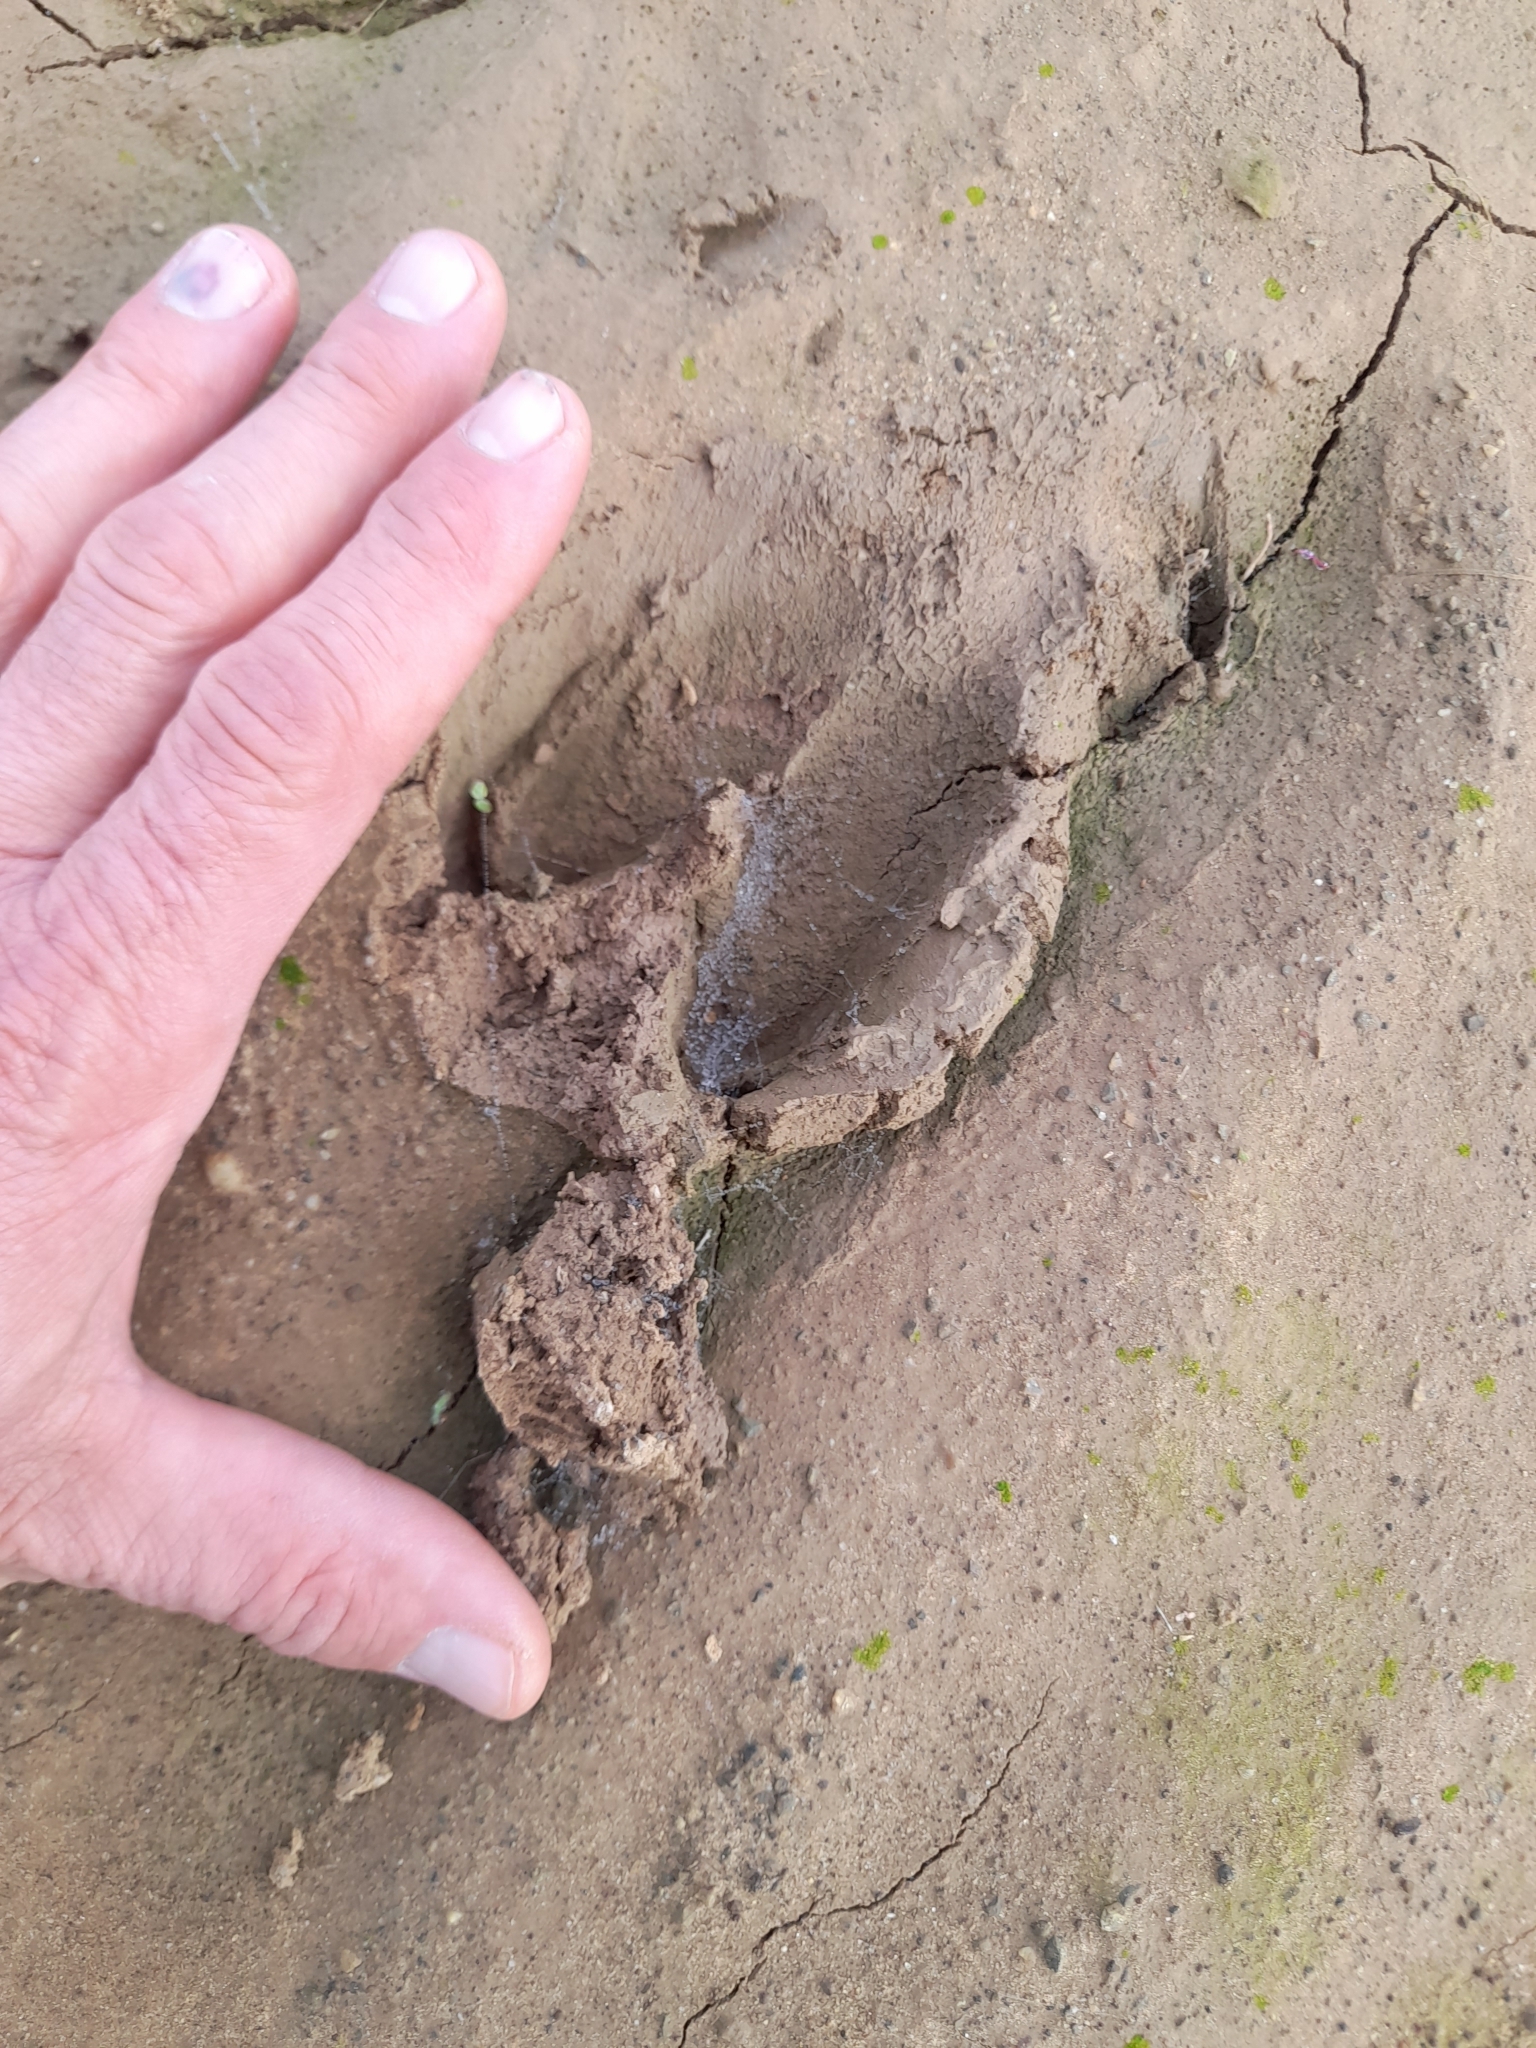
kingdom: Animalia
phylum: Chordata
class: Mammalia
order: Artiodactyla
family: Suidae
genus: Sus
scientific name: Sus scrofa
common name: Wild boar
